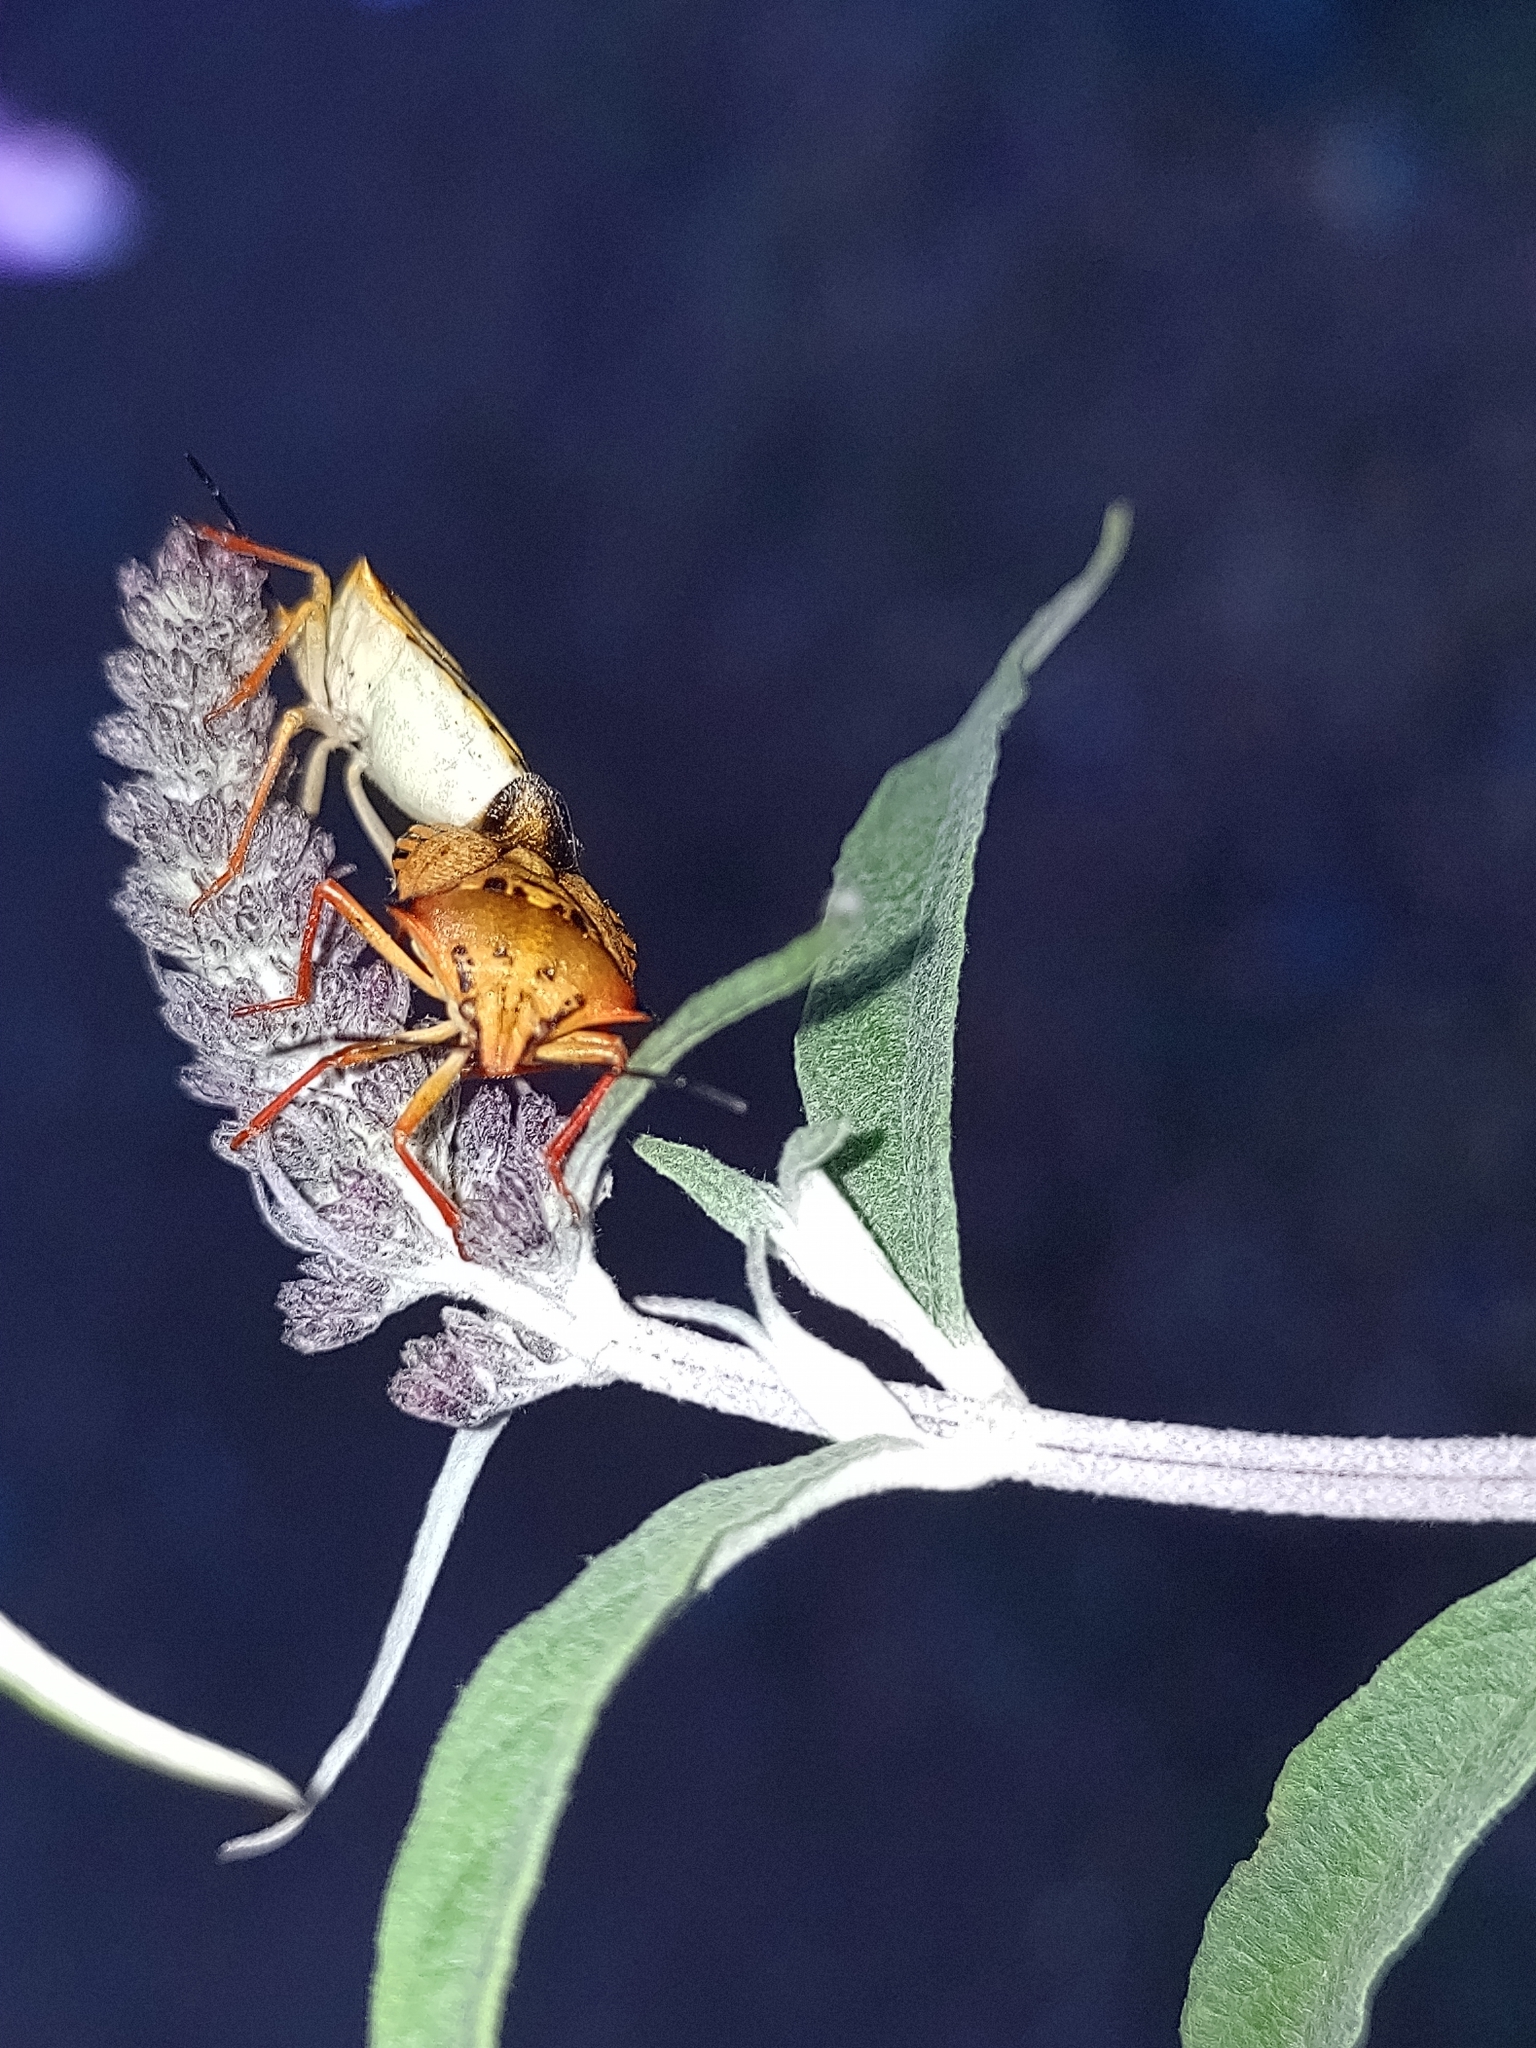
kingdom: Animalia
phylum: Arthropoda
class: Insecta
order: Hemiptera
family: Pentatomidae
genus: Carpocoris
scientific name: Carpocoris mediterraneus
